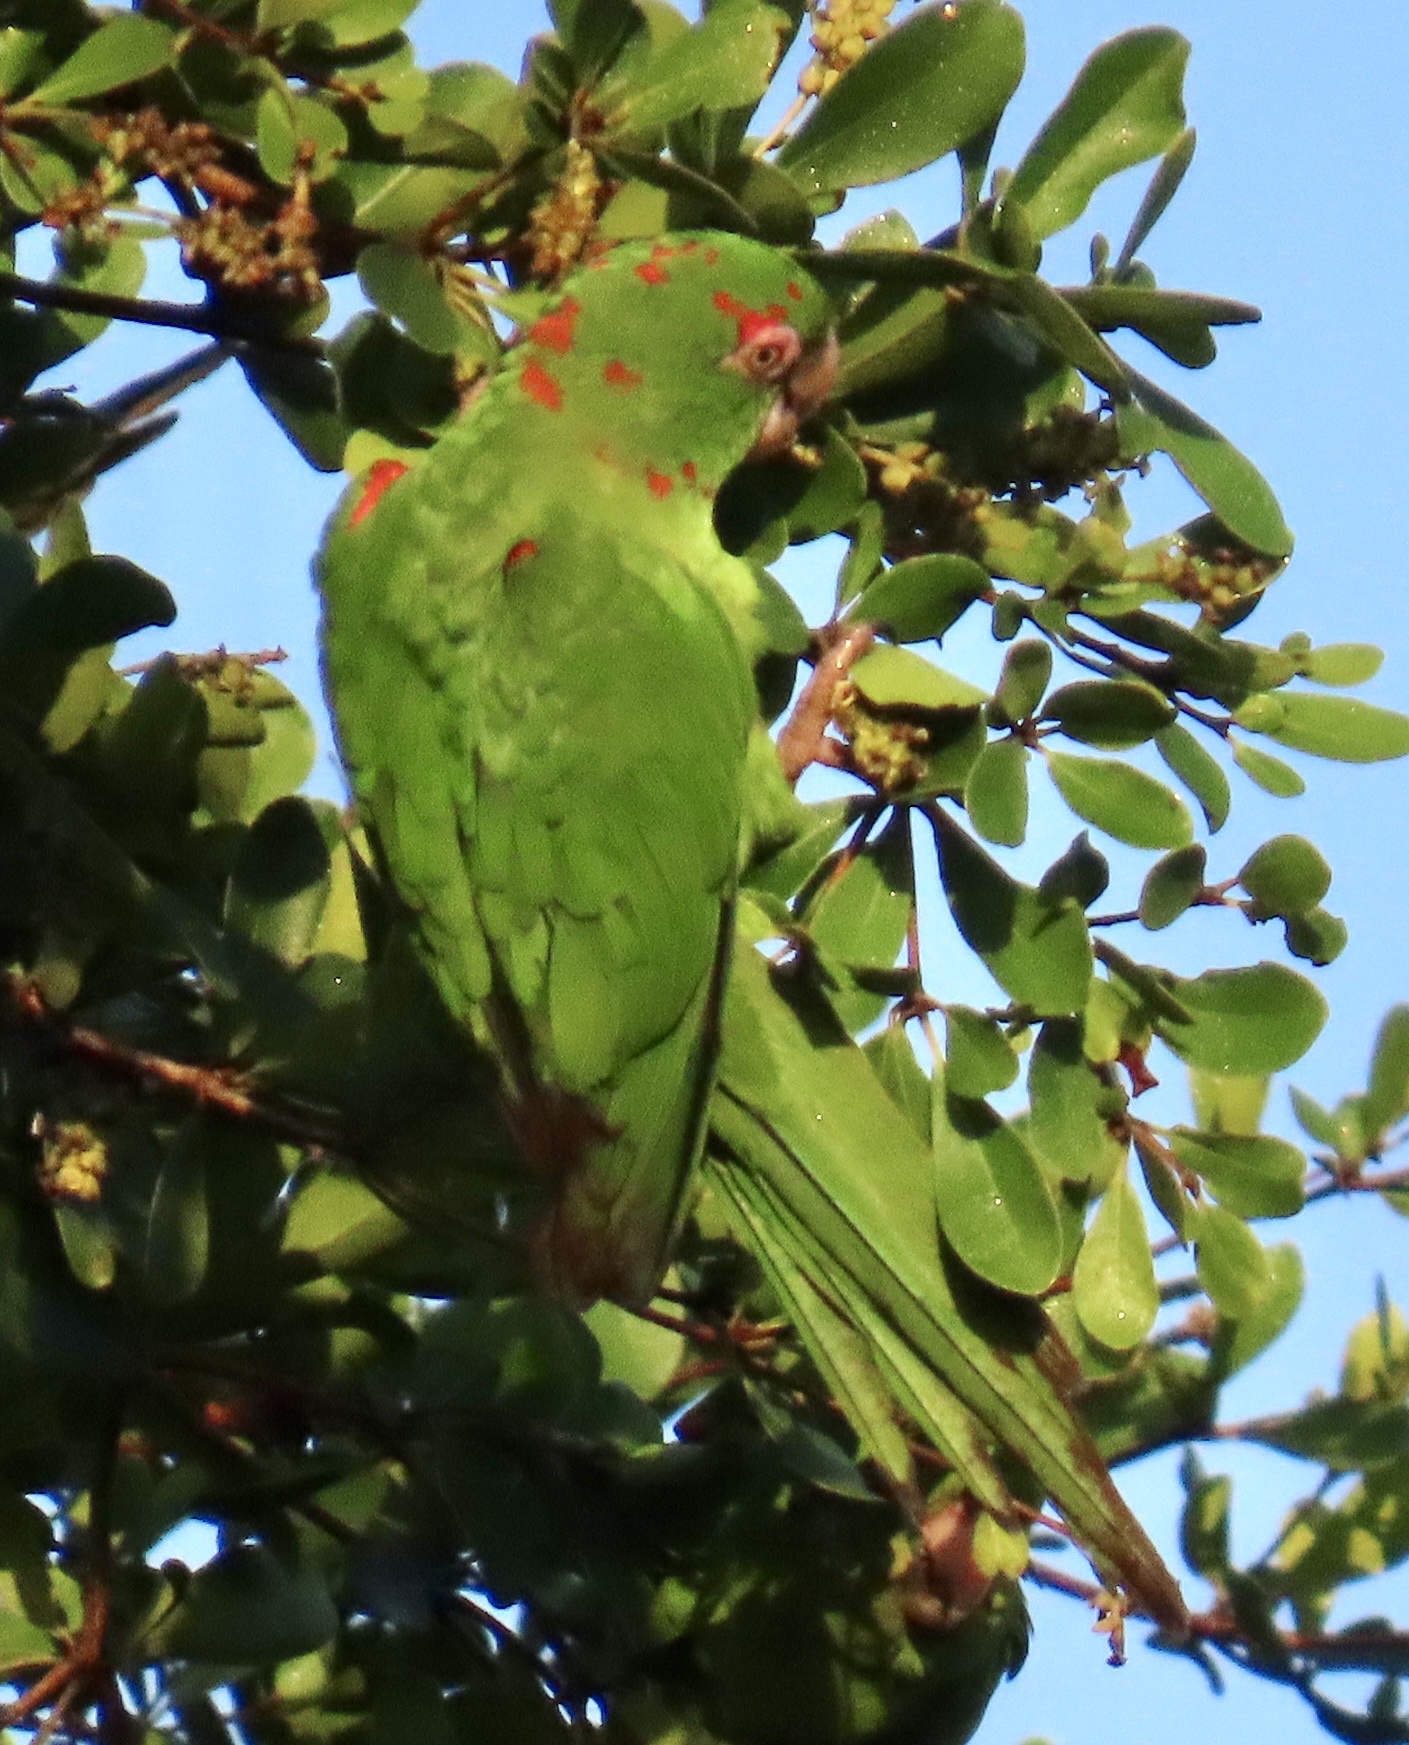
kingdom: Animalia
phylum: Chordata
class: Aves
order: Psittaciformes
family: Psittacidae
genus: Aratinga
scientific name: Aratinga euops
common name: Cuban parakeet
